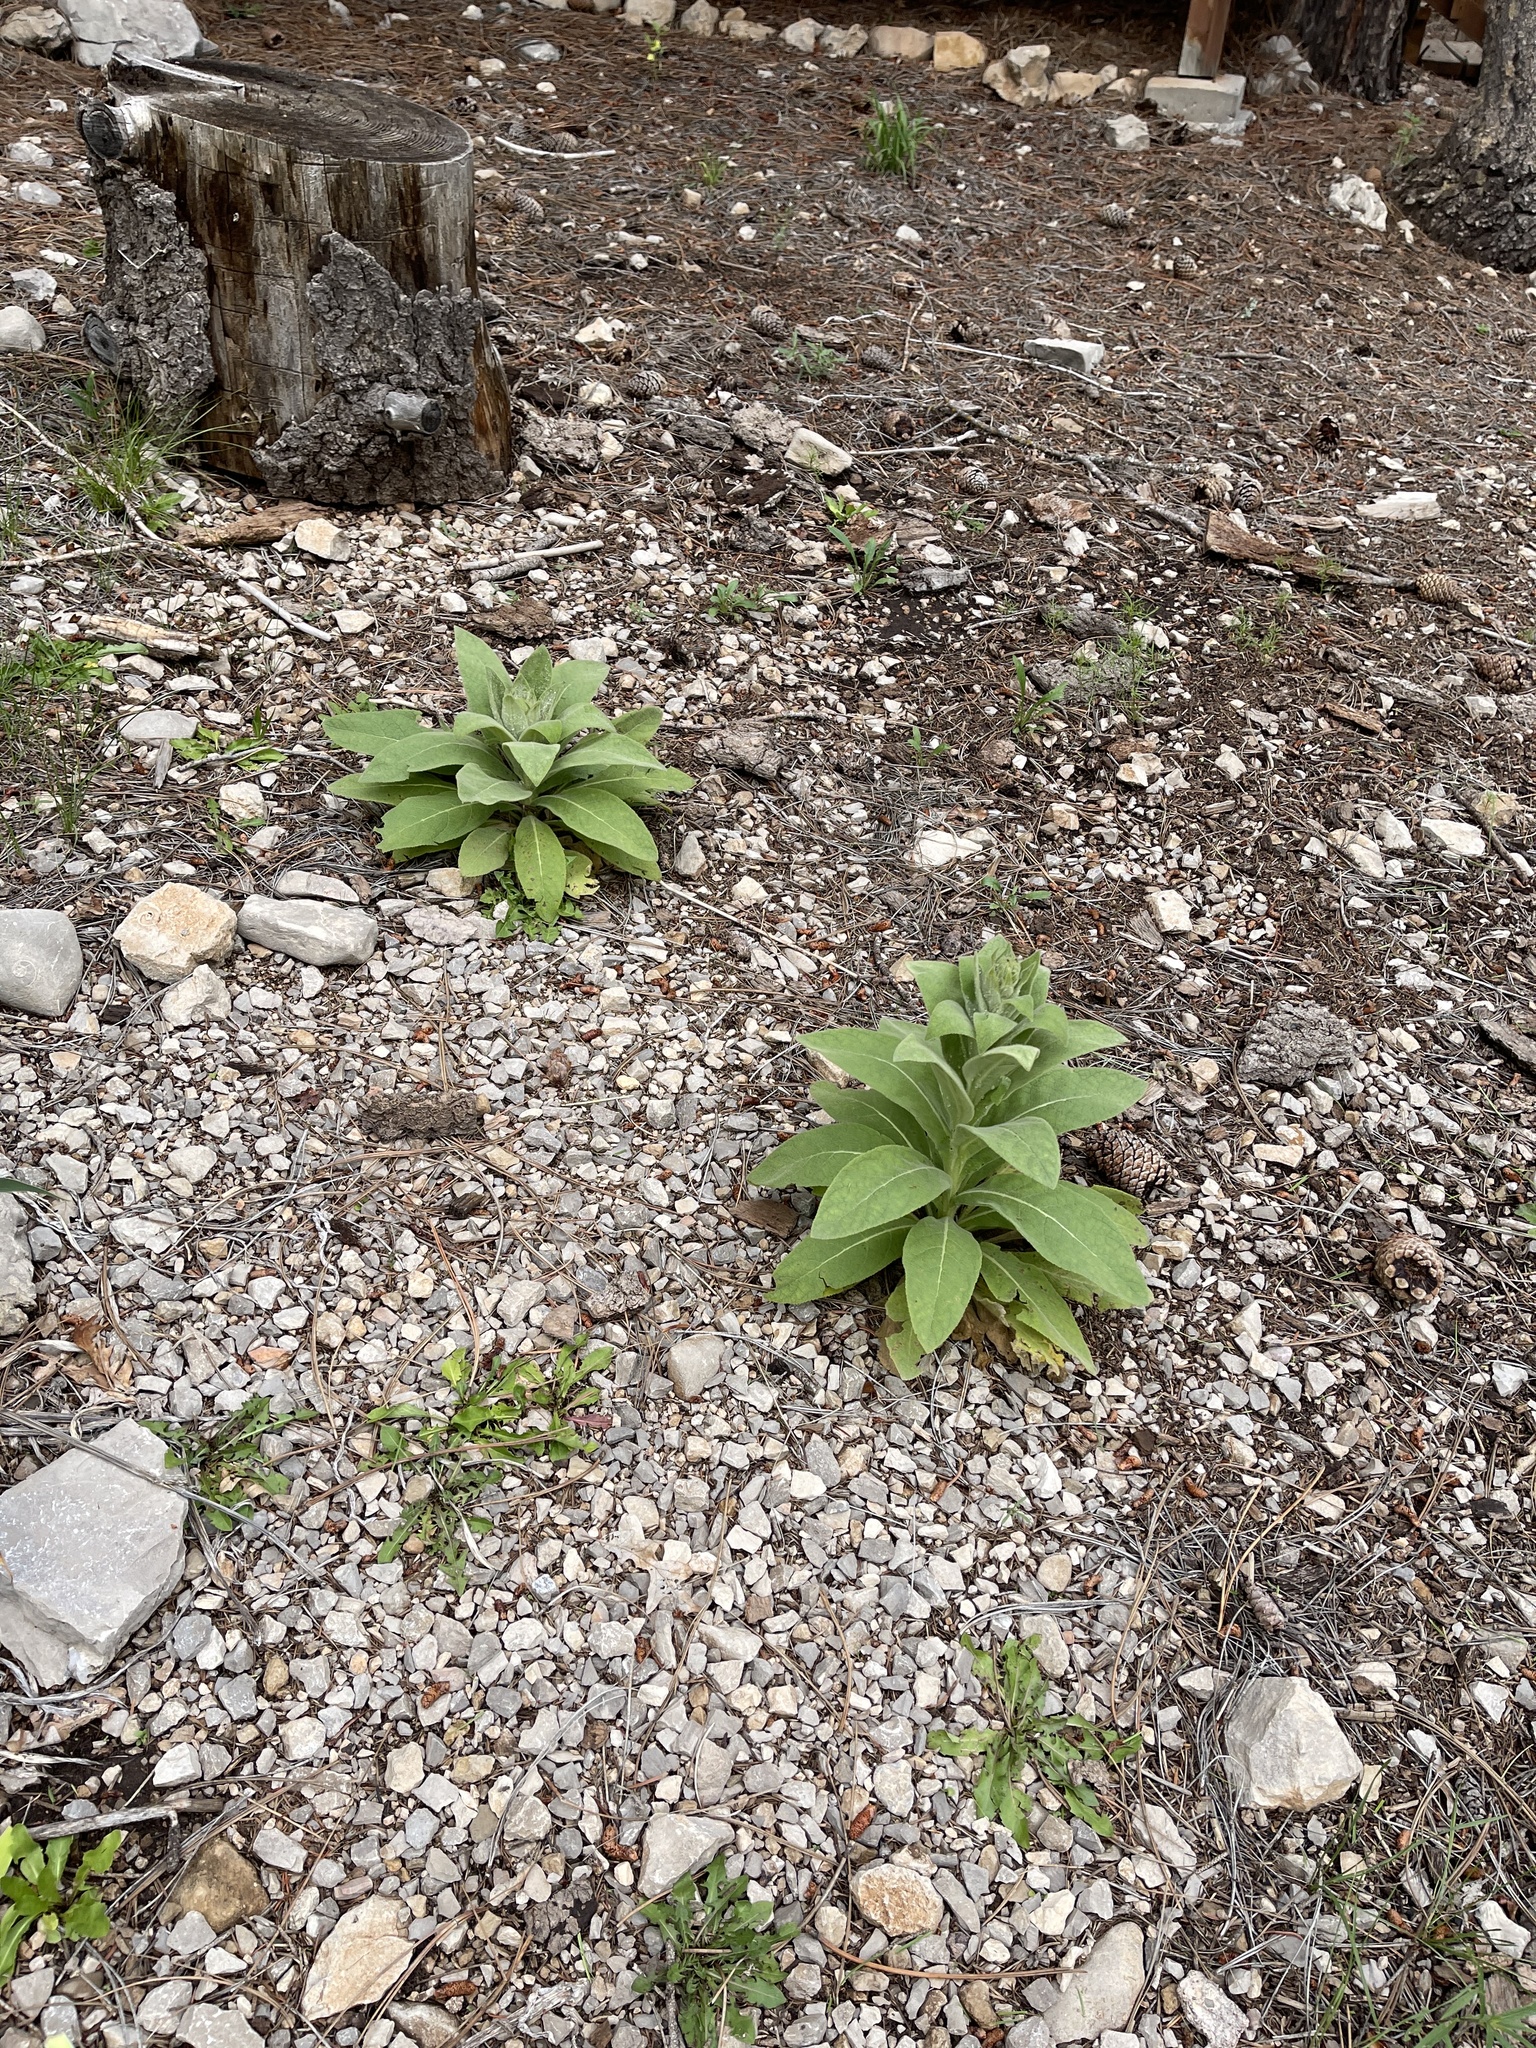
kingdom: Plantae
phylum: Tracheophyta
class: Magnoliopsida
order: Lamiales
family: Scrophulariaceae
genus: Verbascum
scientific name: Verbascum thapsus
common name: Common mullein
